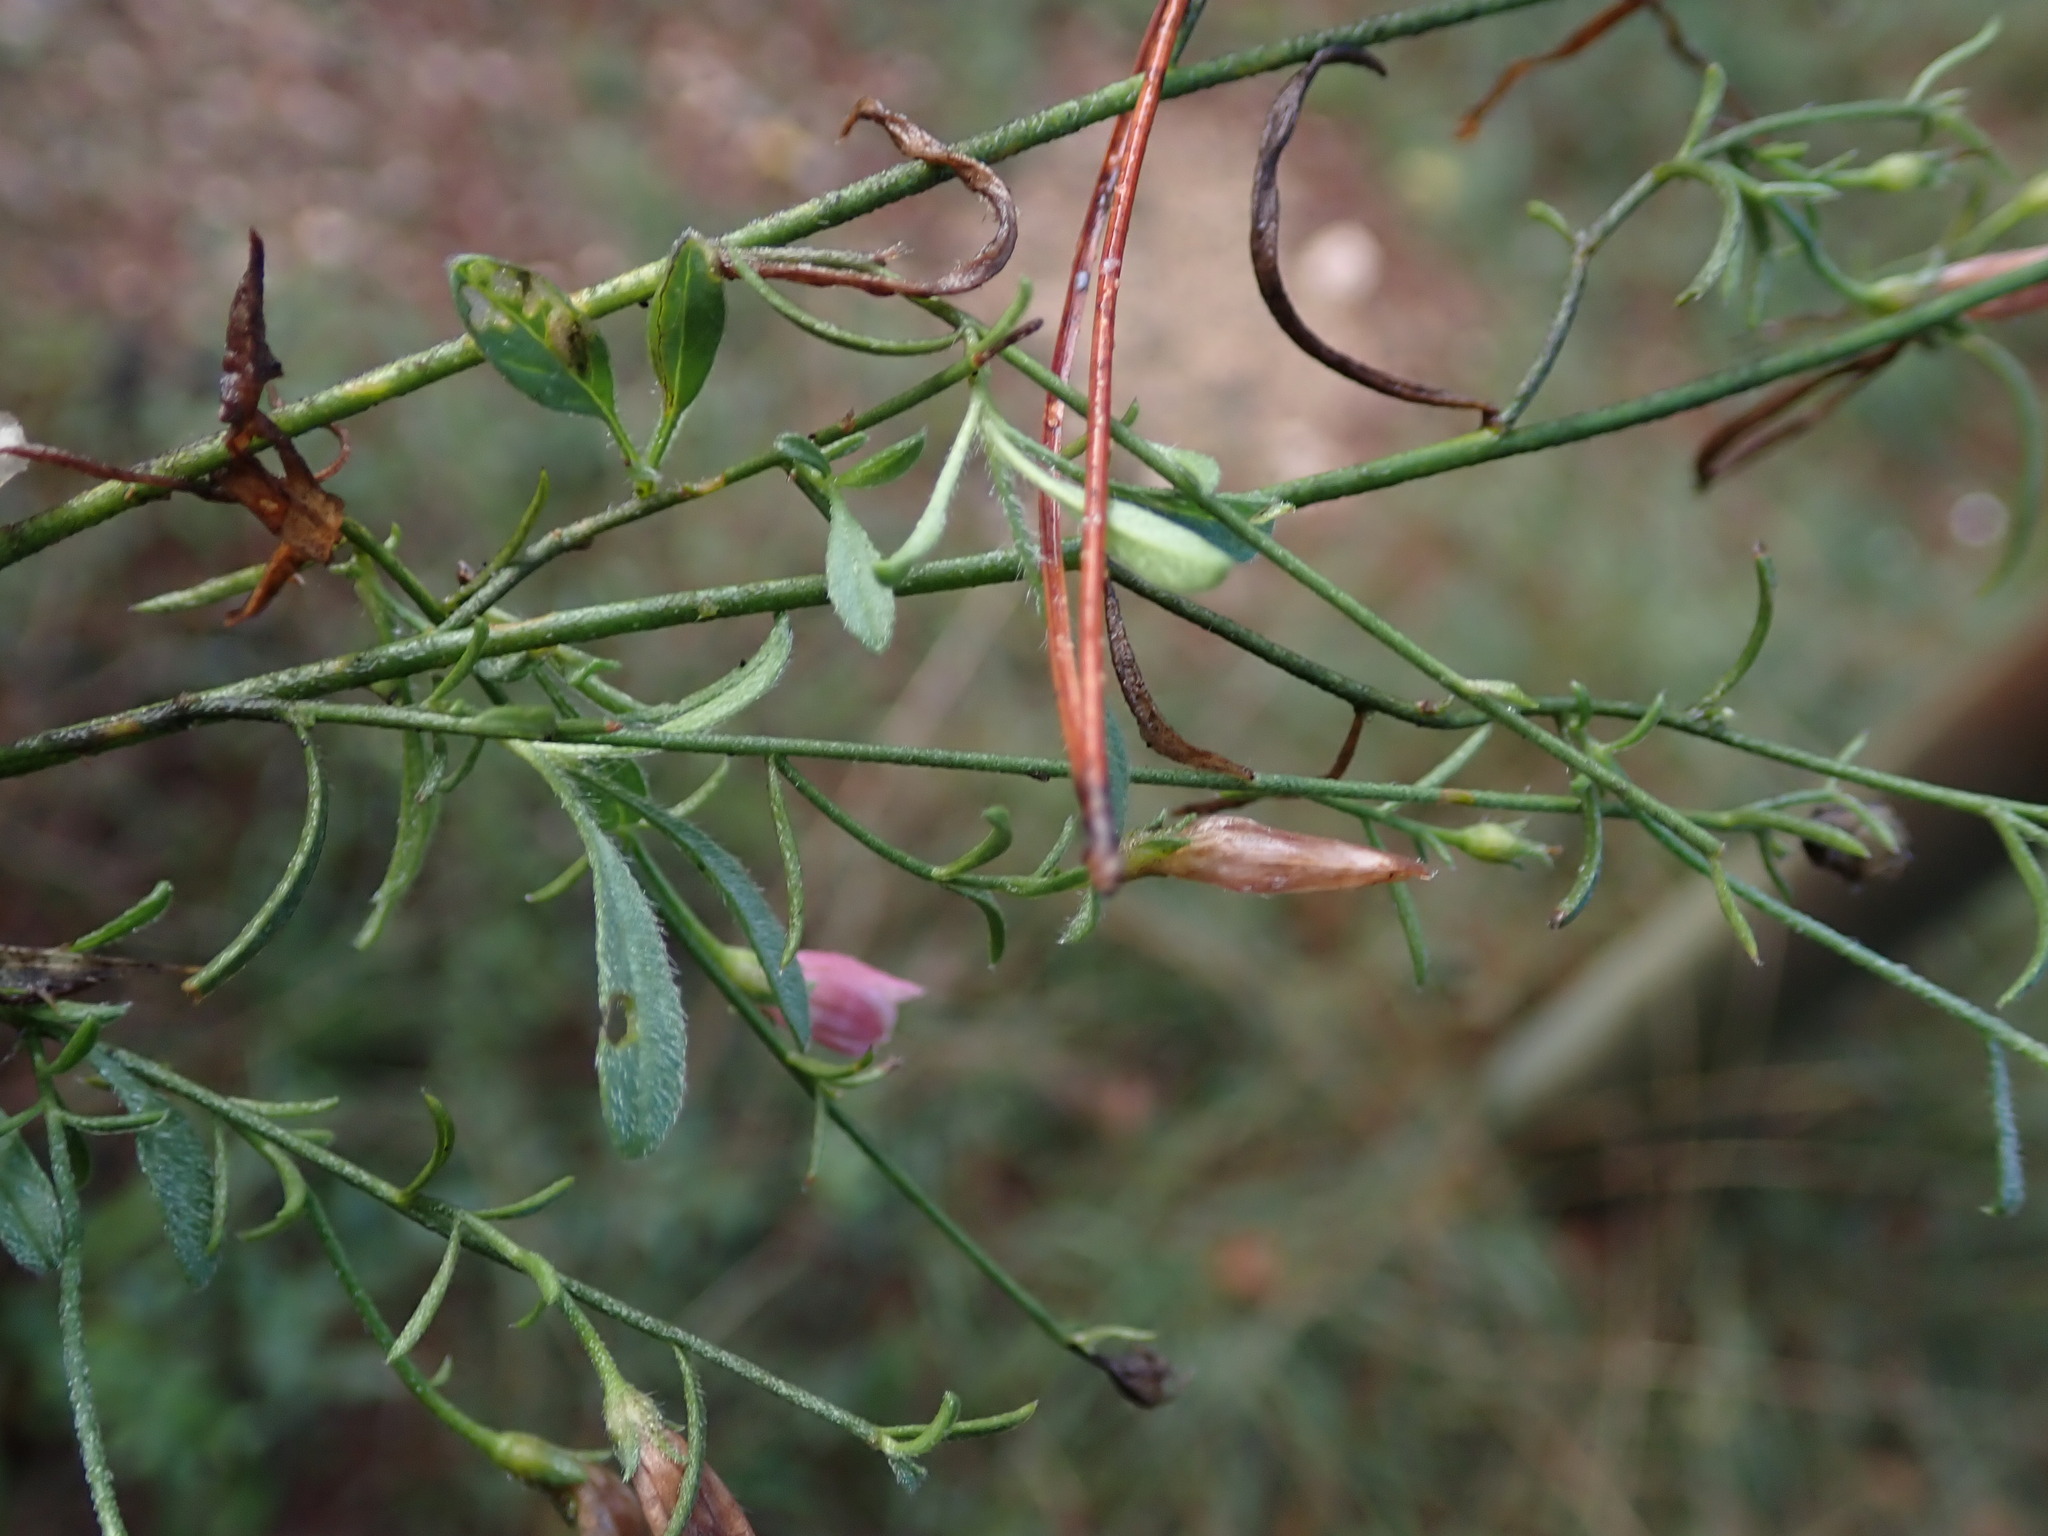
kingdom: Plantae
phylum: Tracheophyta
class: Magnoliopsida
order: Solanales
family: Convolvulaceae
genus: Convolvulus
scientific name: Convolvulus cantabrica
